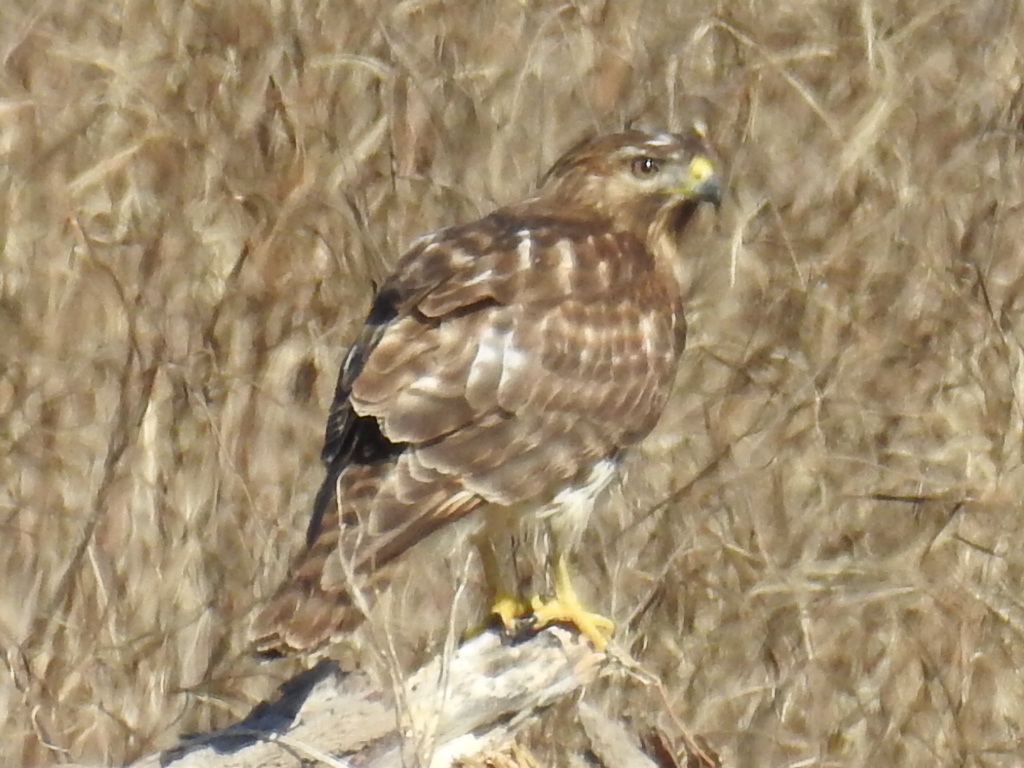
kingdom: Animalia
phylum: Chordata
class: Aves
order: Accipitriformes
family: Accipitridae
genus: Buteo
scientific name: Buteo lineatus
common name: Red-shouldered hawk
